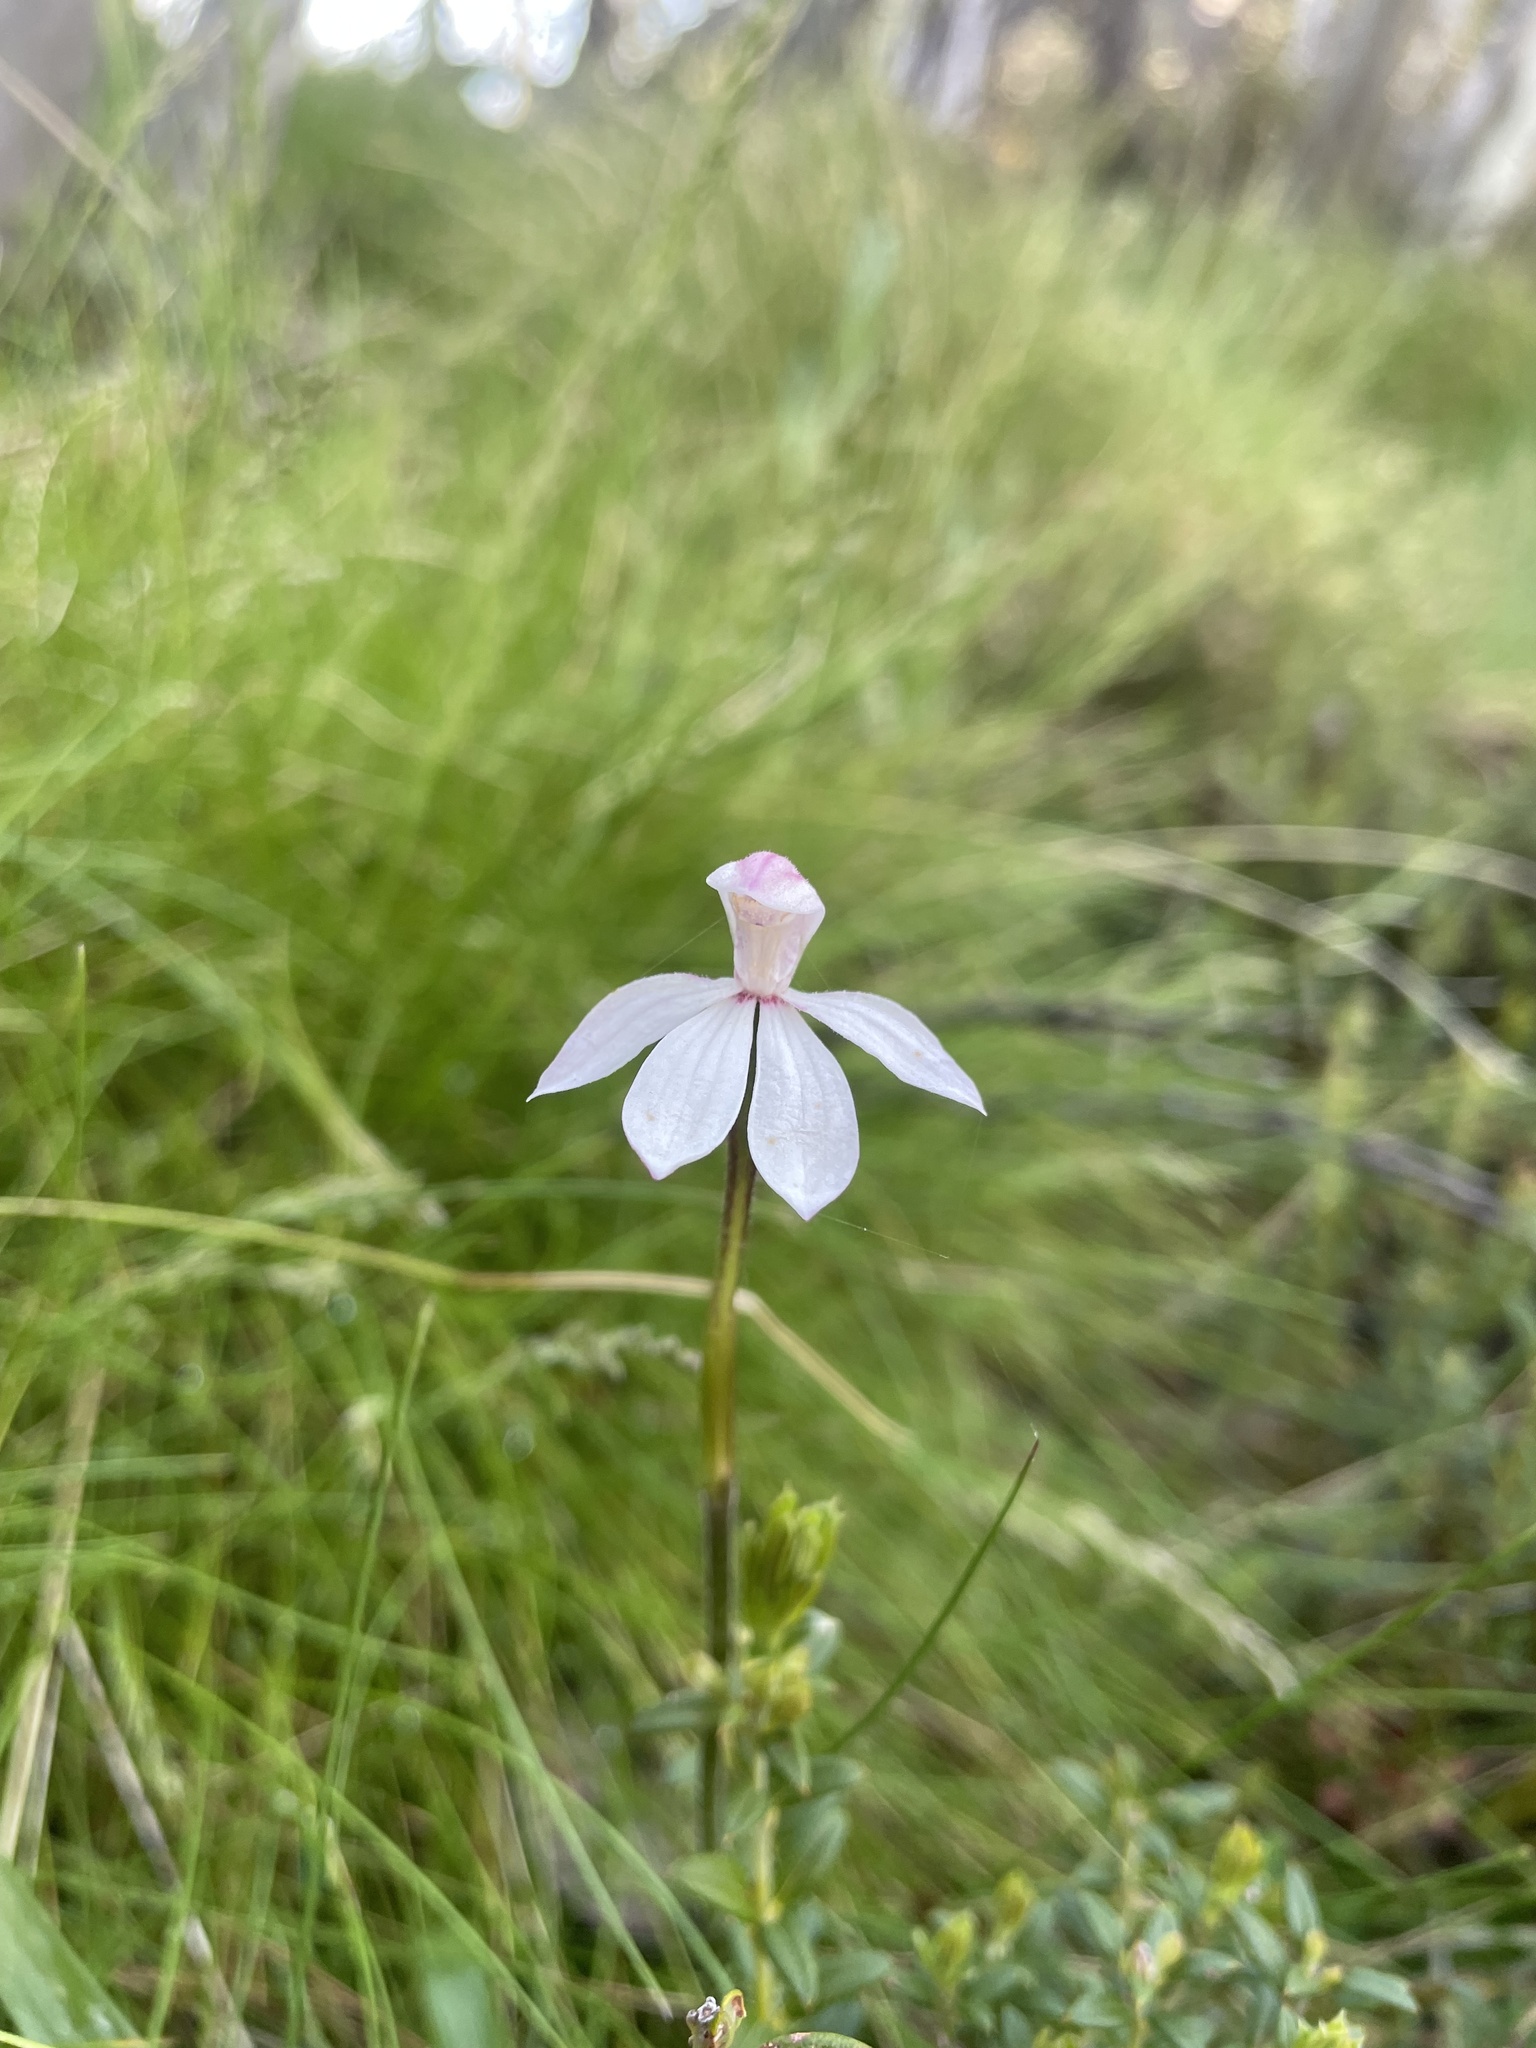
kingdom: Plantae
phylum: Tracheophyta
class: Liliopsida
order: Asparagales
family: Orchidaceae
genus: Caladenia
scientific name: Caladenia alpina
